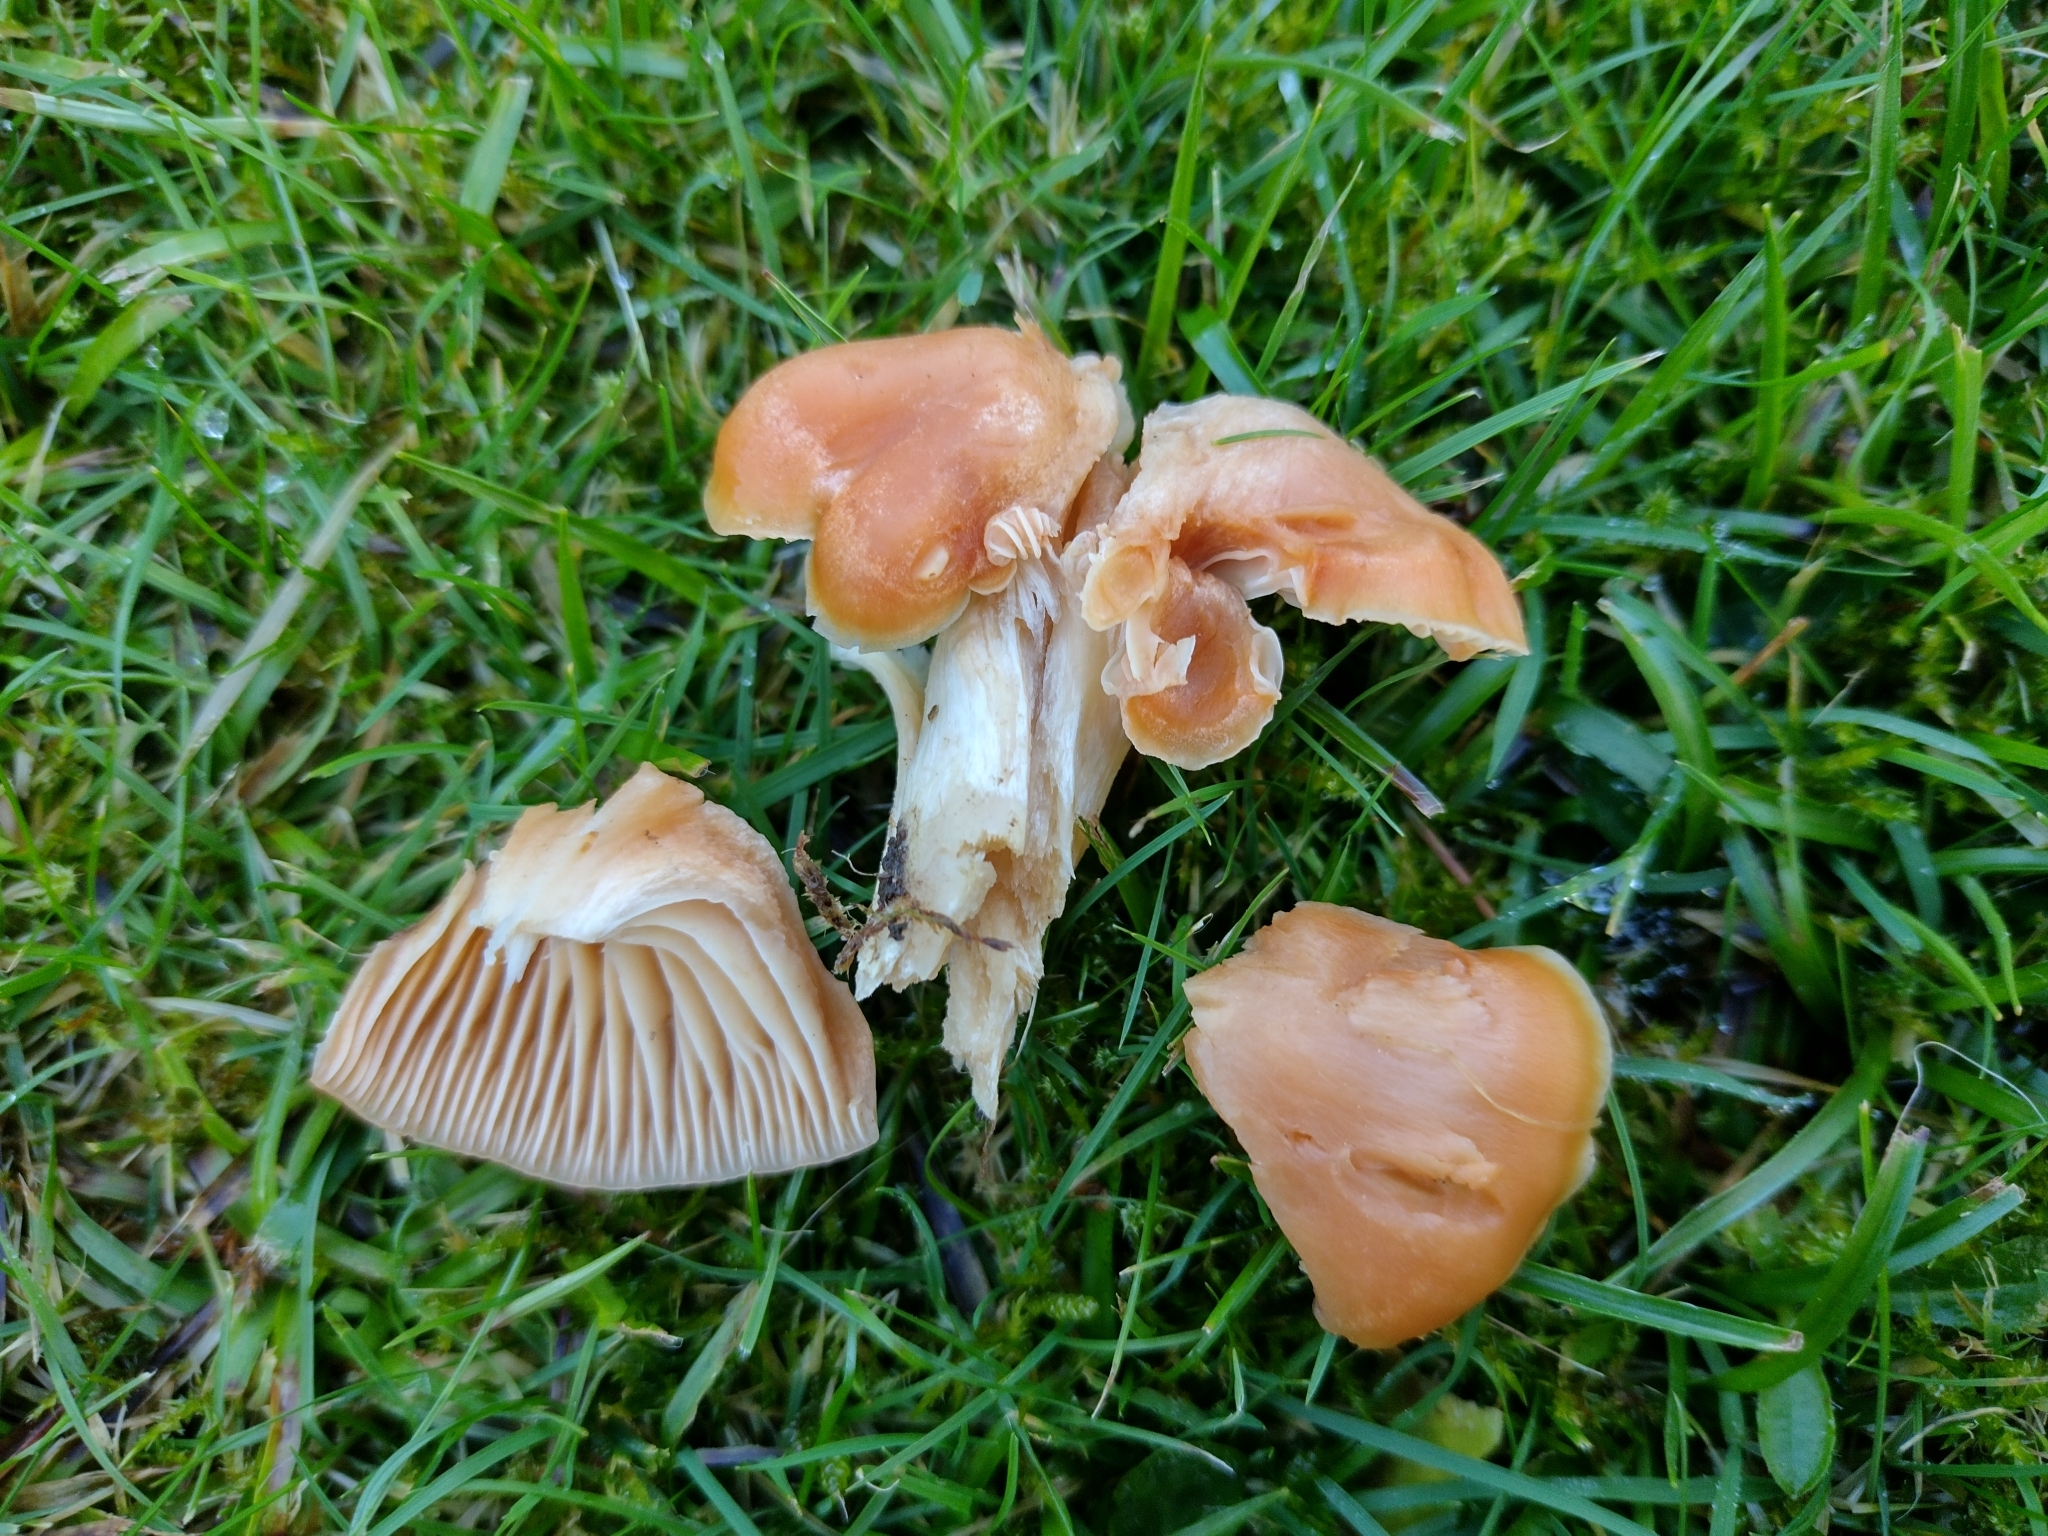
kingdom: Fungi
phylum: Basidiomycota
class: Agaricomycetes
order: Agaricales
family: Hygrophoraceae
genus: Cuphophyllus
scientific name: Cuphophyllus pratensis
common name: Meadow waxcap
